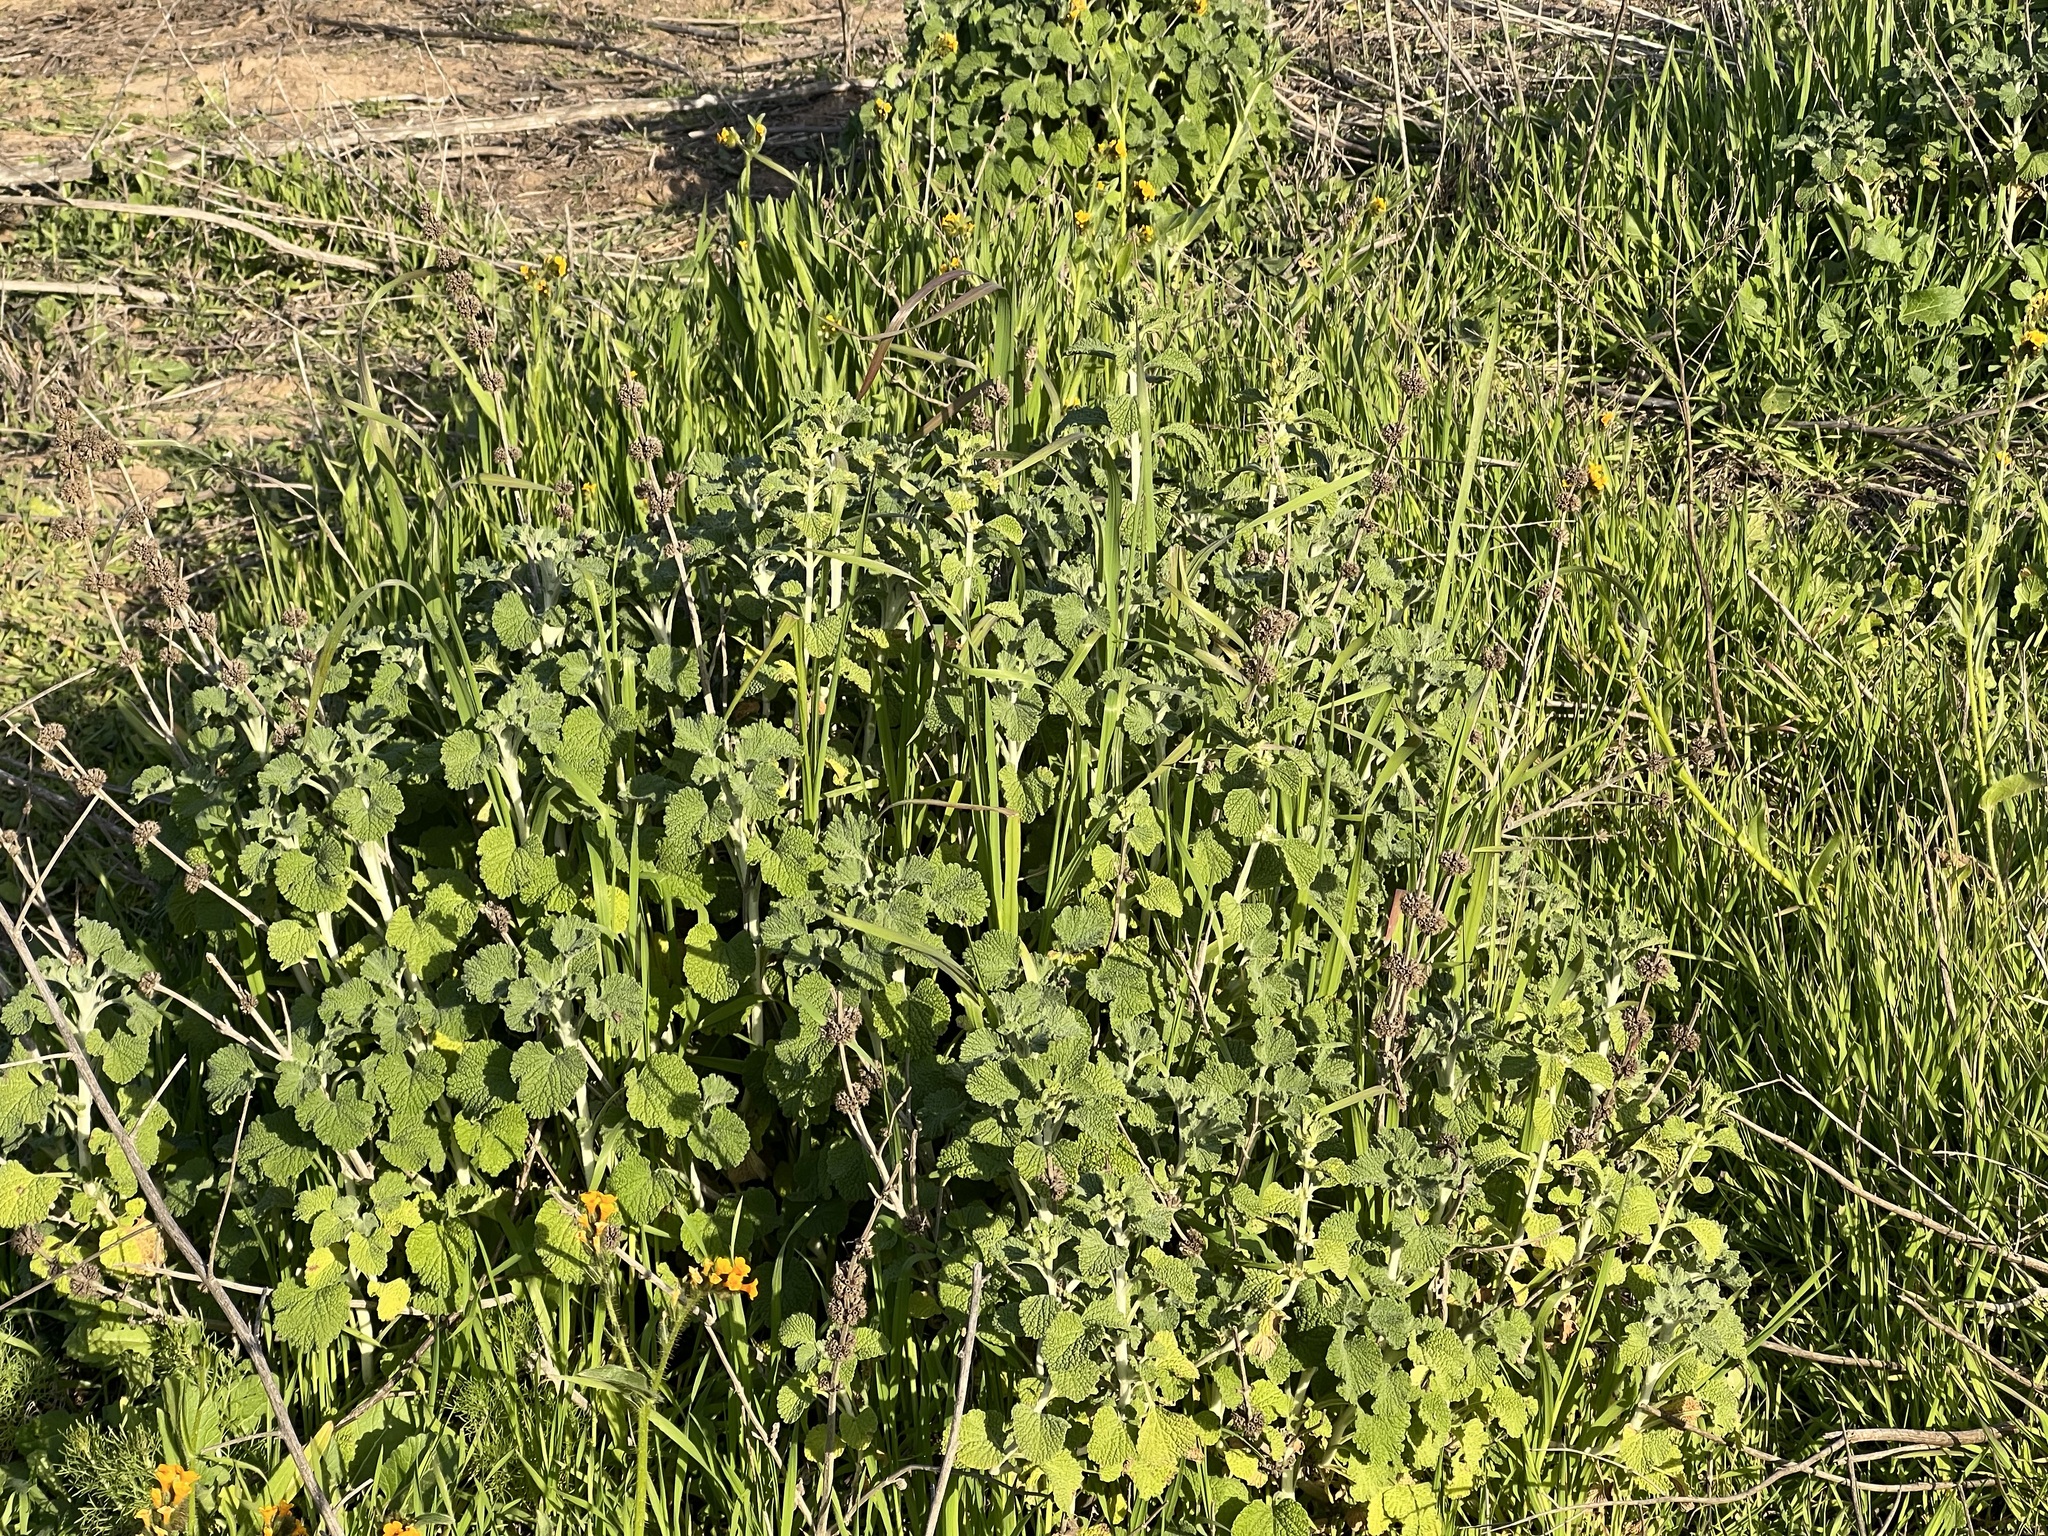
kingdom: Plantae
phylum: Tracheophyta
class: Magnoliopsida
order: Lamiales
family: Lamiaceae
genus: Marrubium
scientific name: Marrubium vulgare
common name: Horehound
